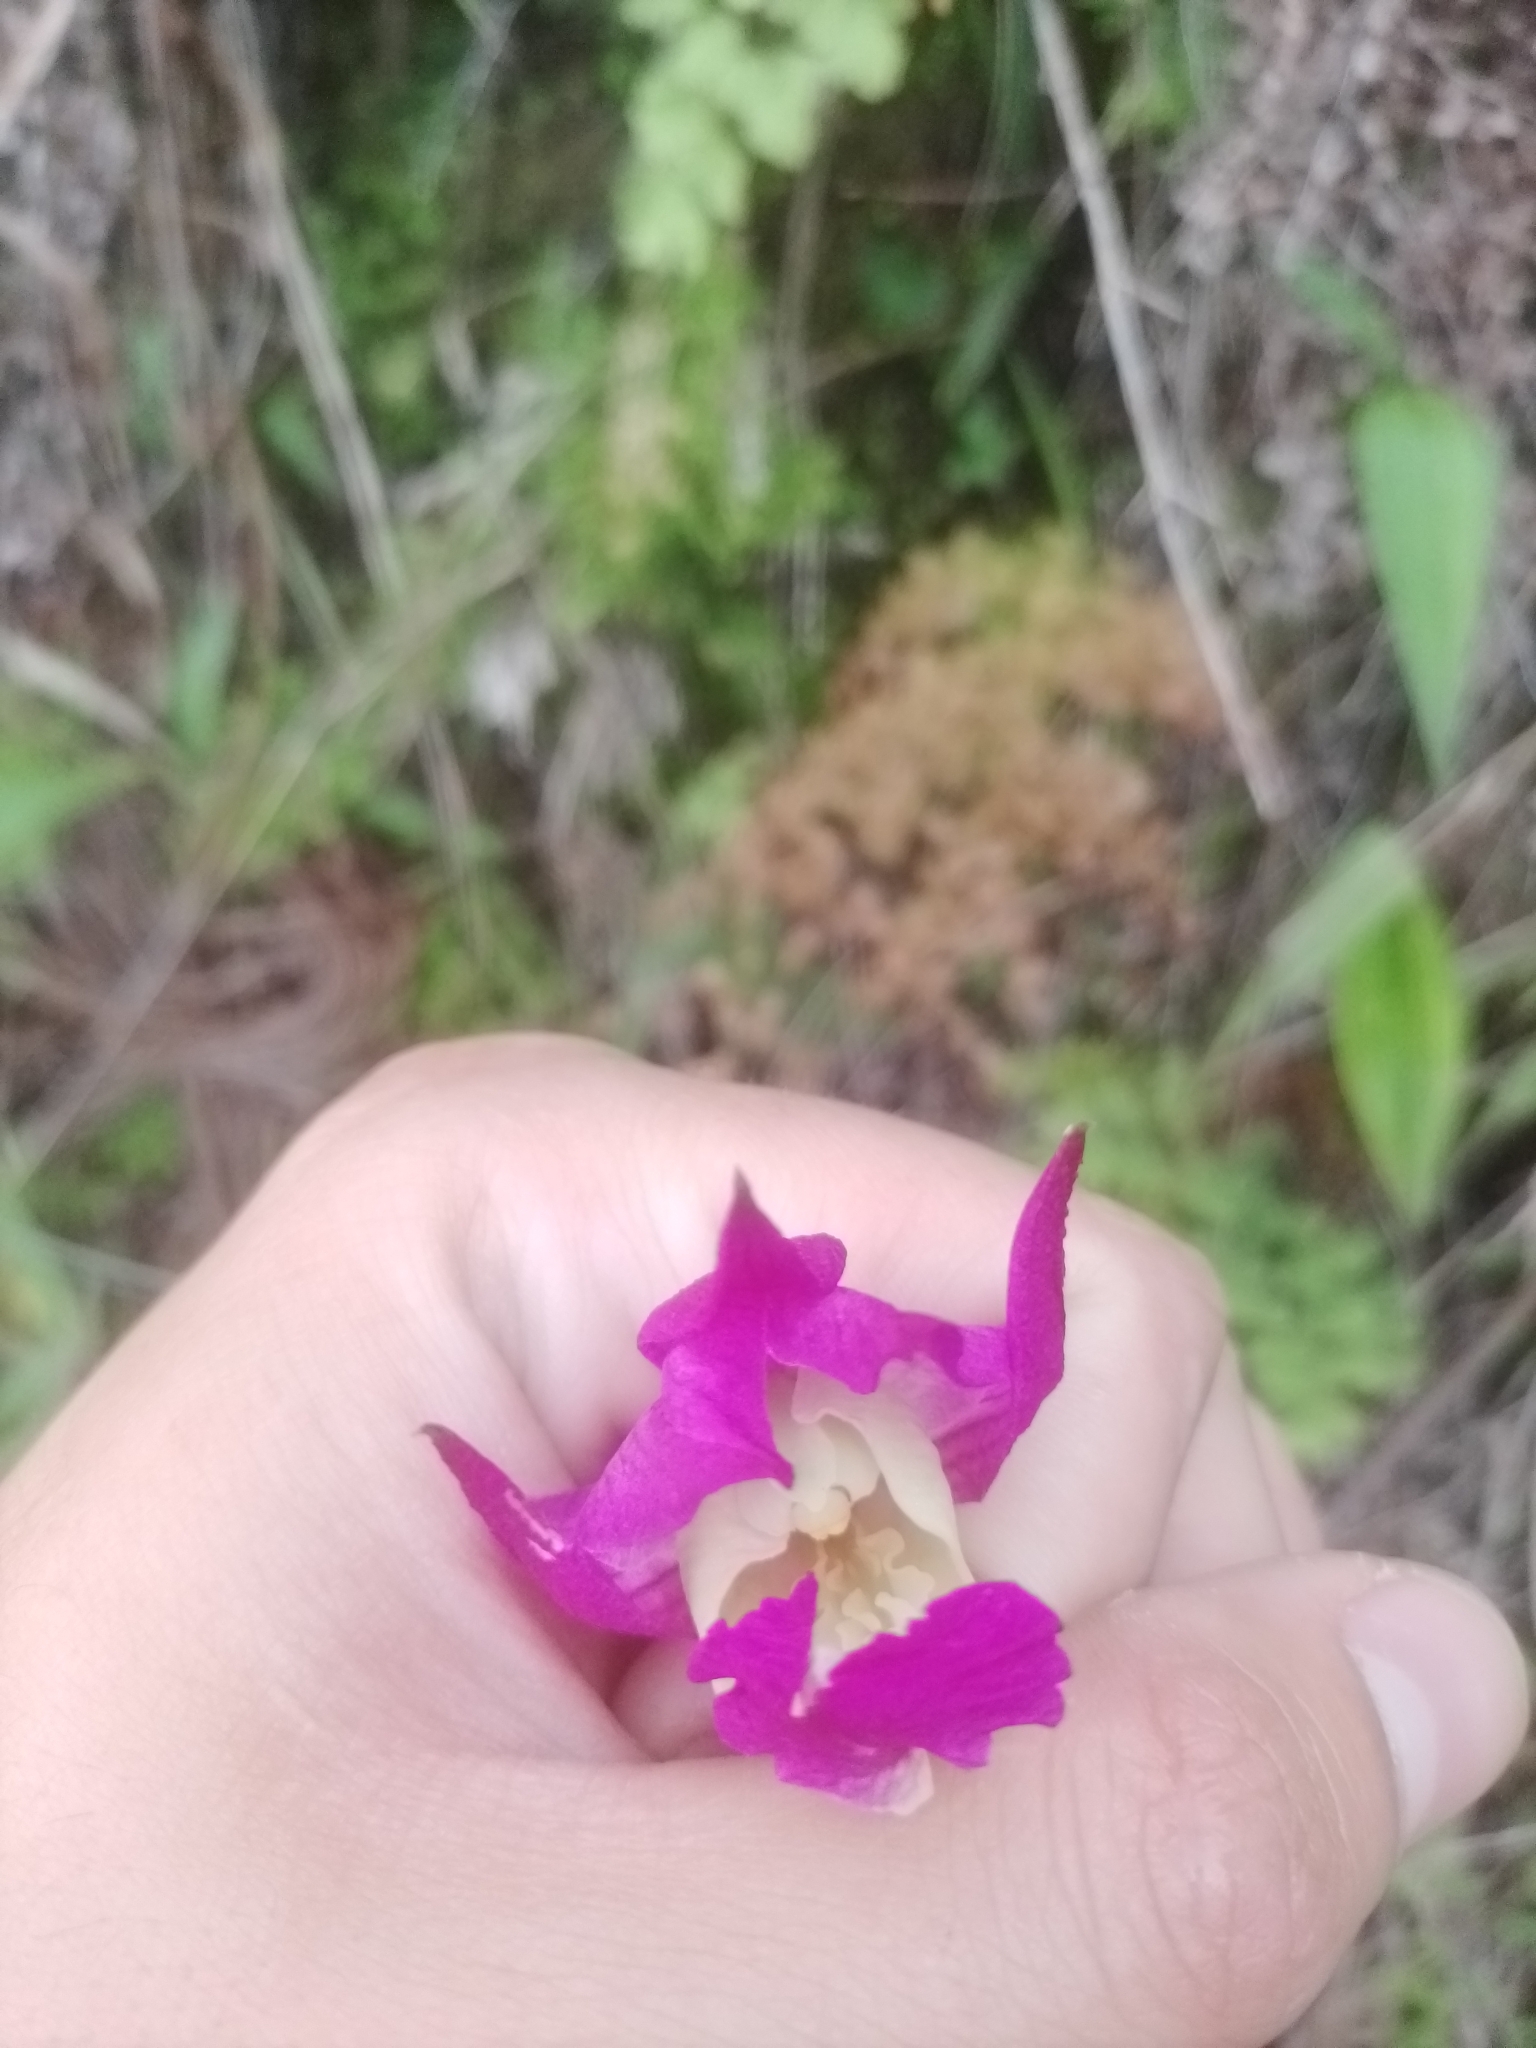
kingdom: Plantae
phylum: Tracheophyta
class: Liliopsida
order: Asparagales
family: Orchidaceae
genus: Bletia
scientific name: Bletia macristhmochila
